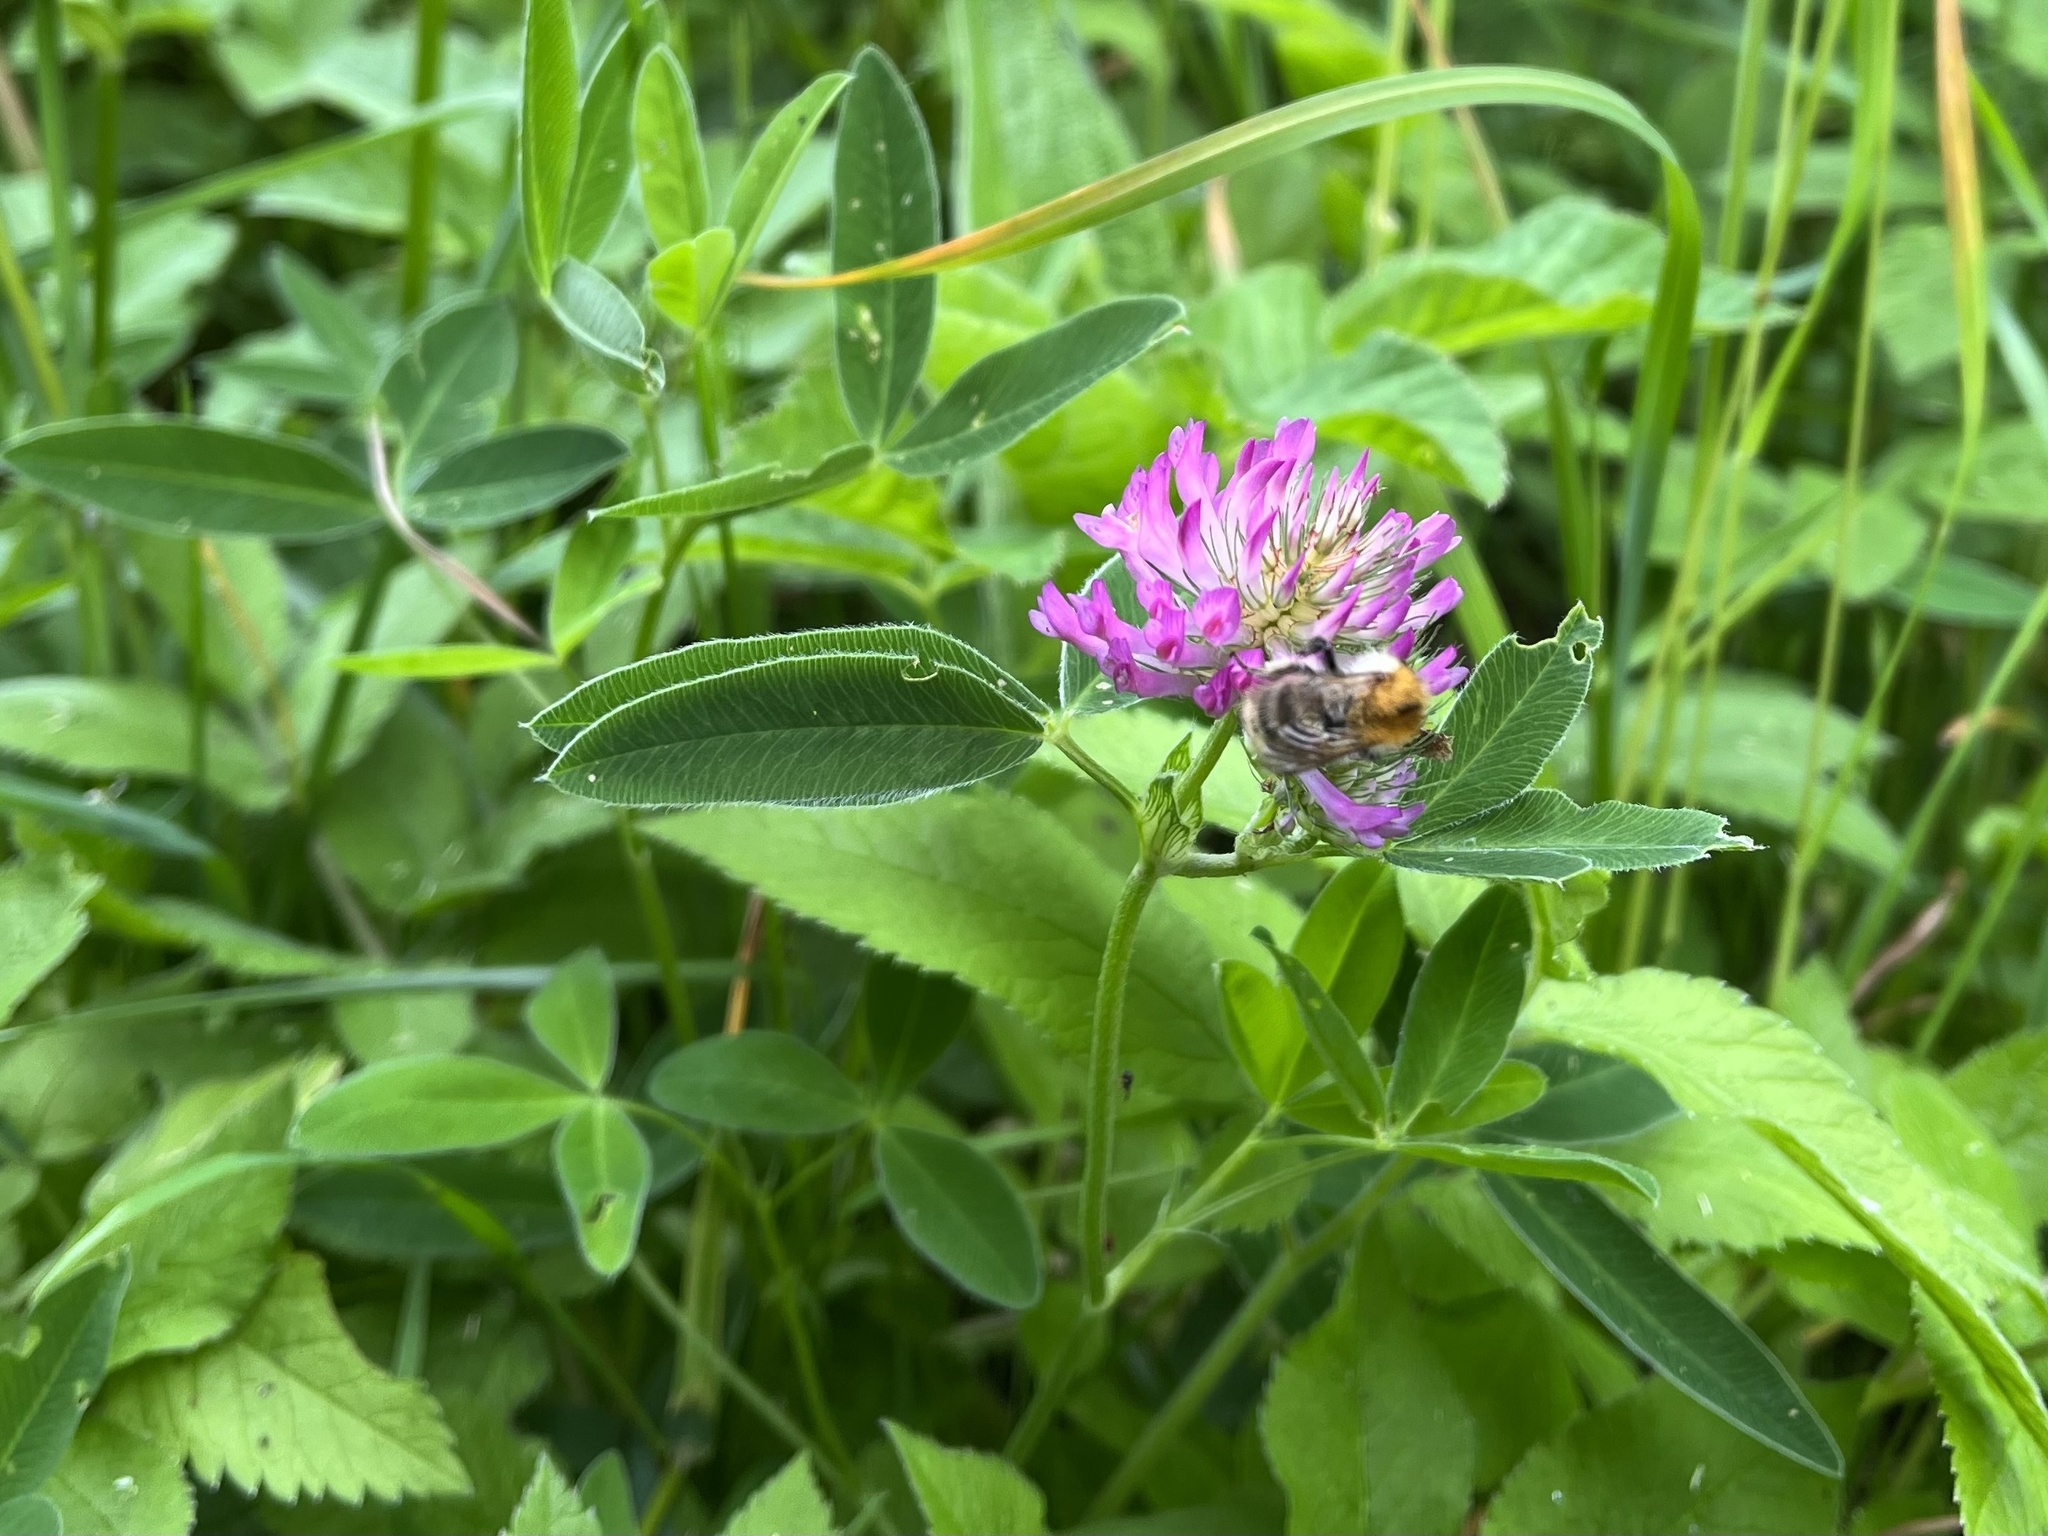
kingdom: Plantae
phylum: Tracheophyta
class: Magnoliopsida
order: Fabales
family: Fabaceae
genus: Trifolium
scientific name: Trifolium medium
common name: Zigzag clover
